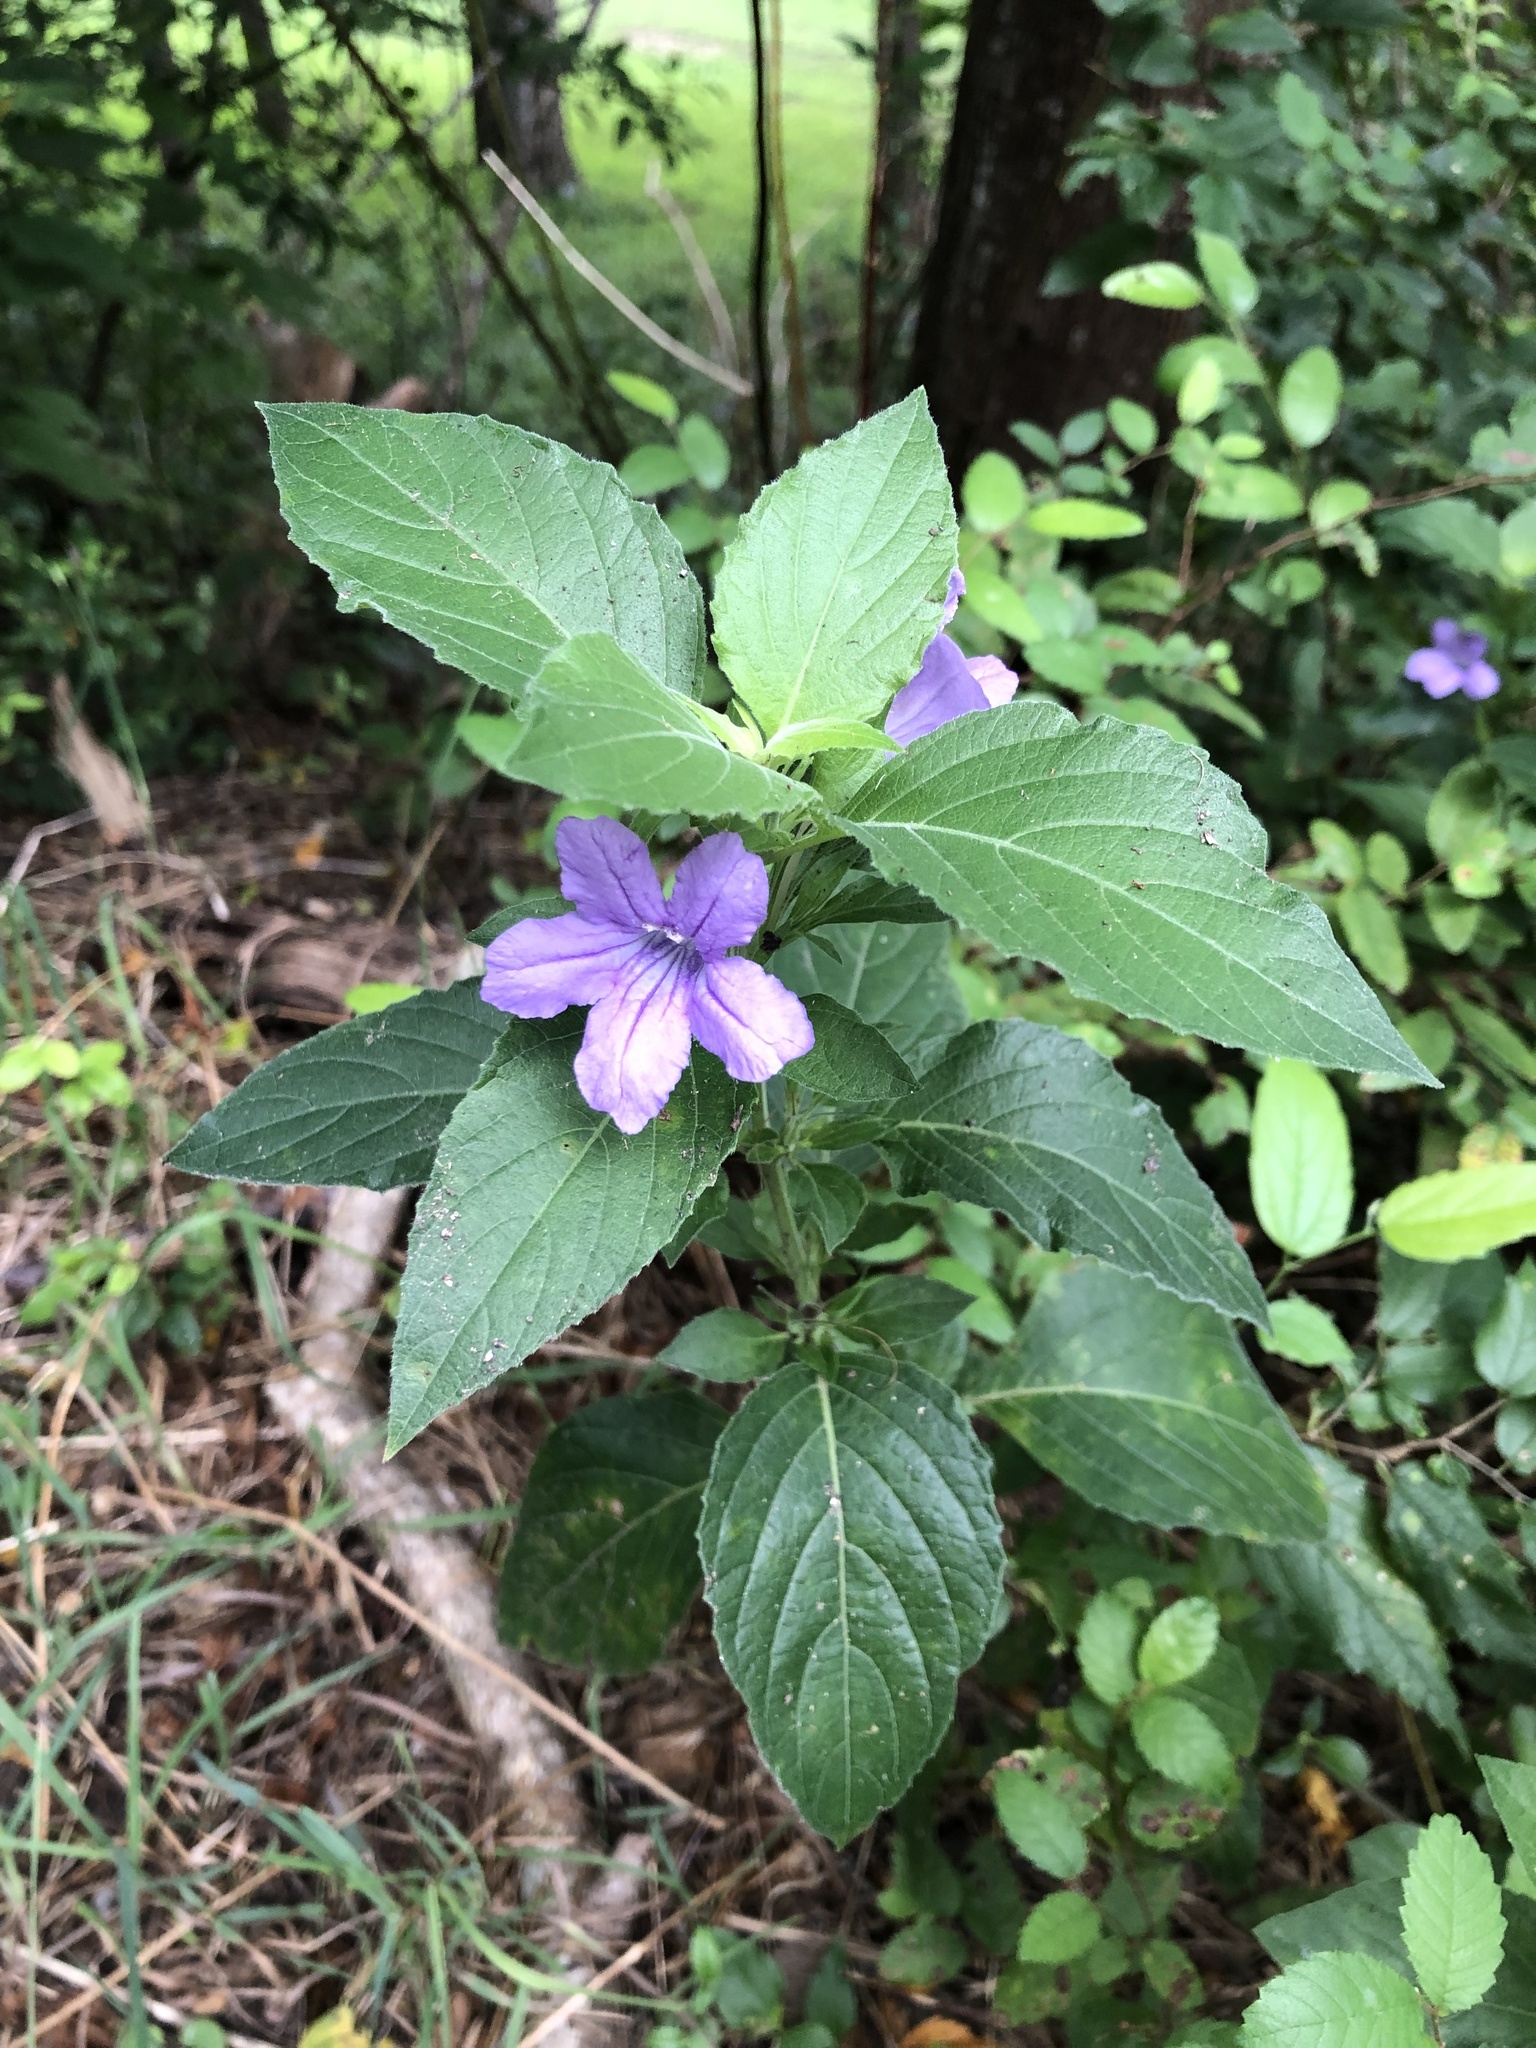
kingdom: Plantae
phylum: Tracheophyta
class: Magnoliopsida
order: Lamiales
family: Acanthaceae
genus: Ruellia
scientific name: Ruellia drummondiana
